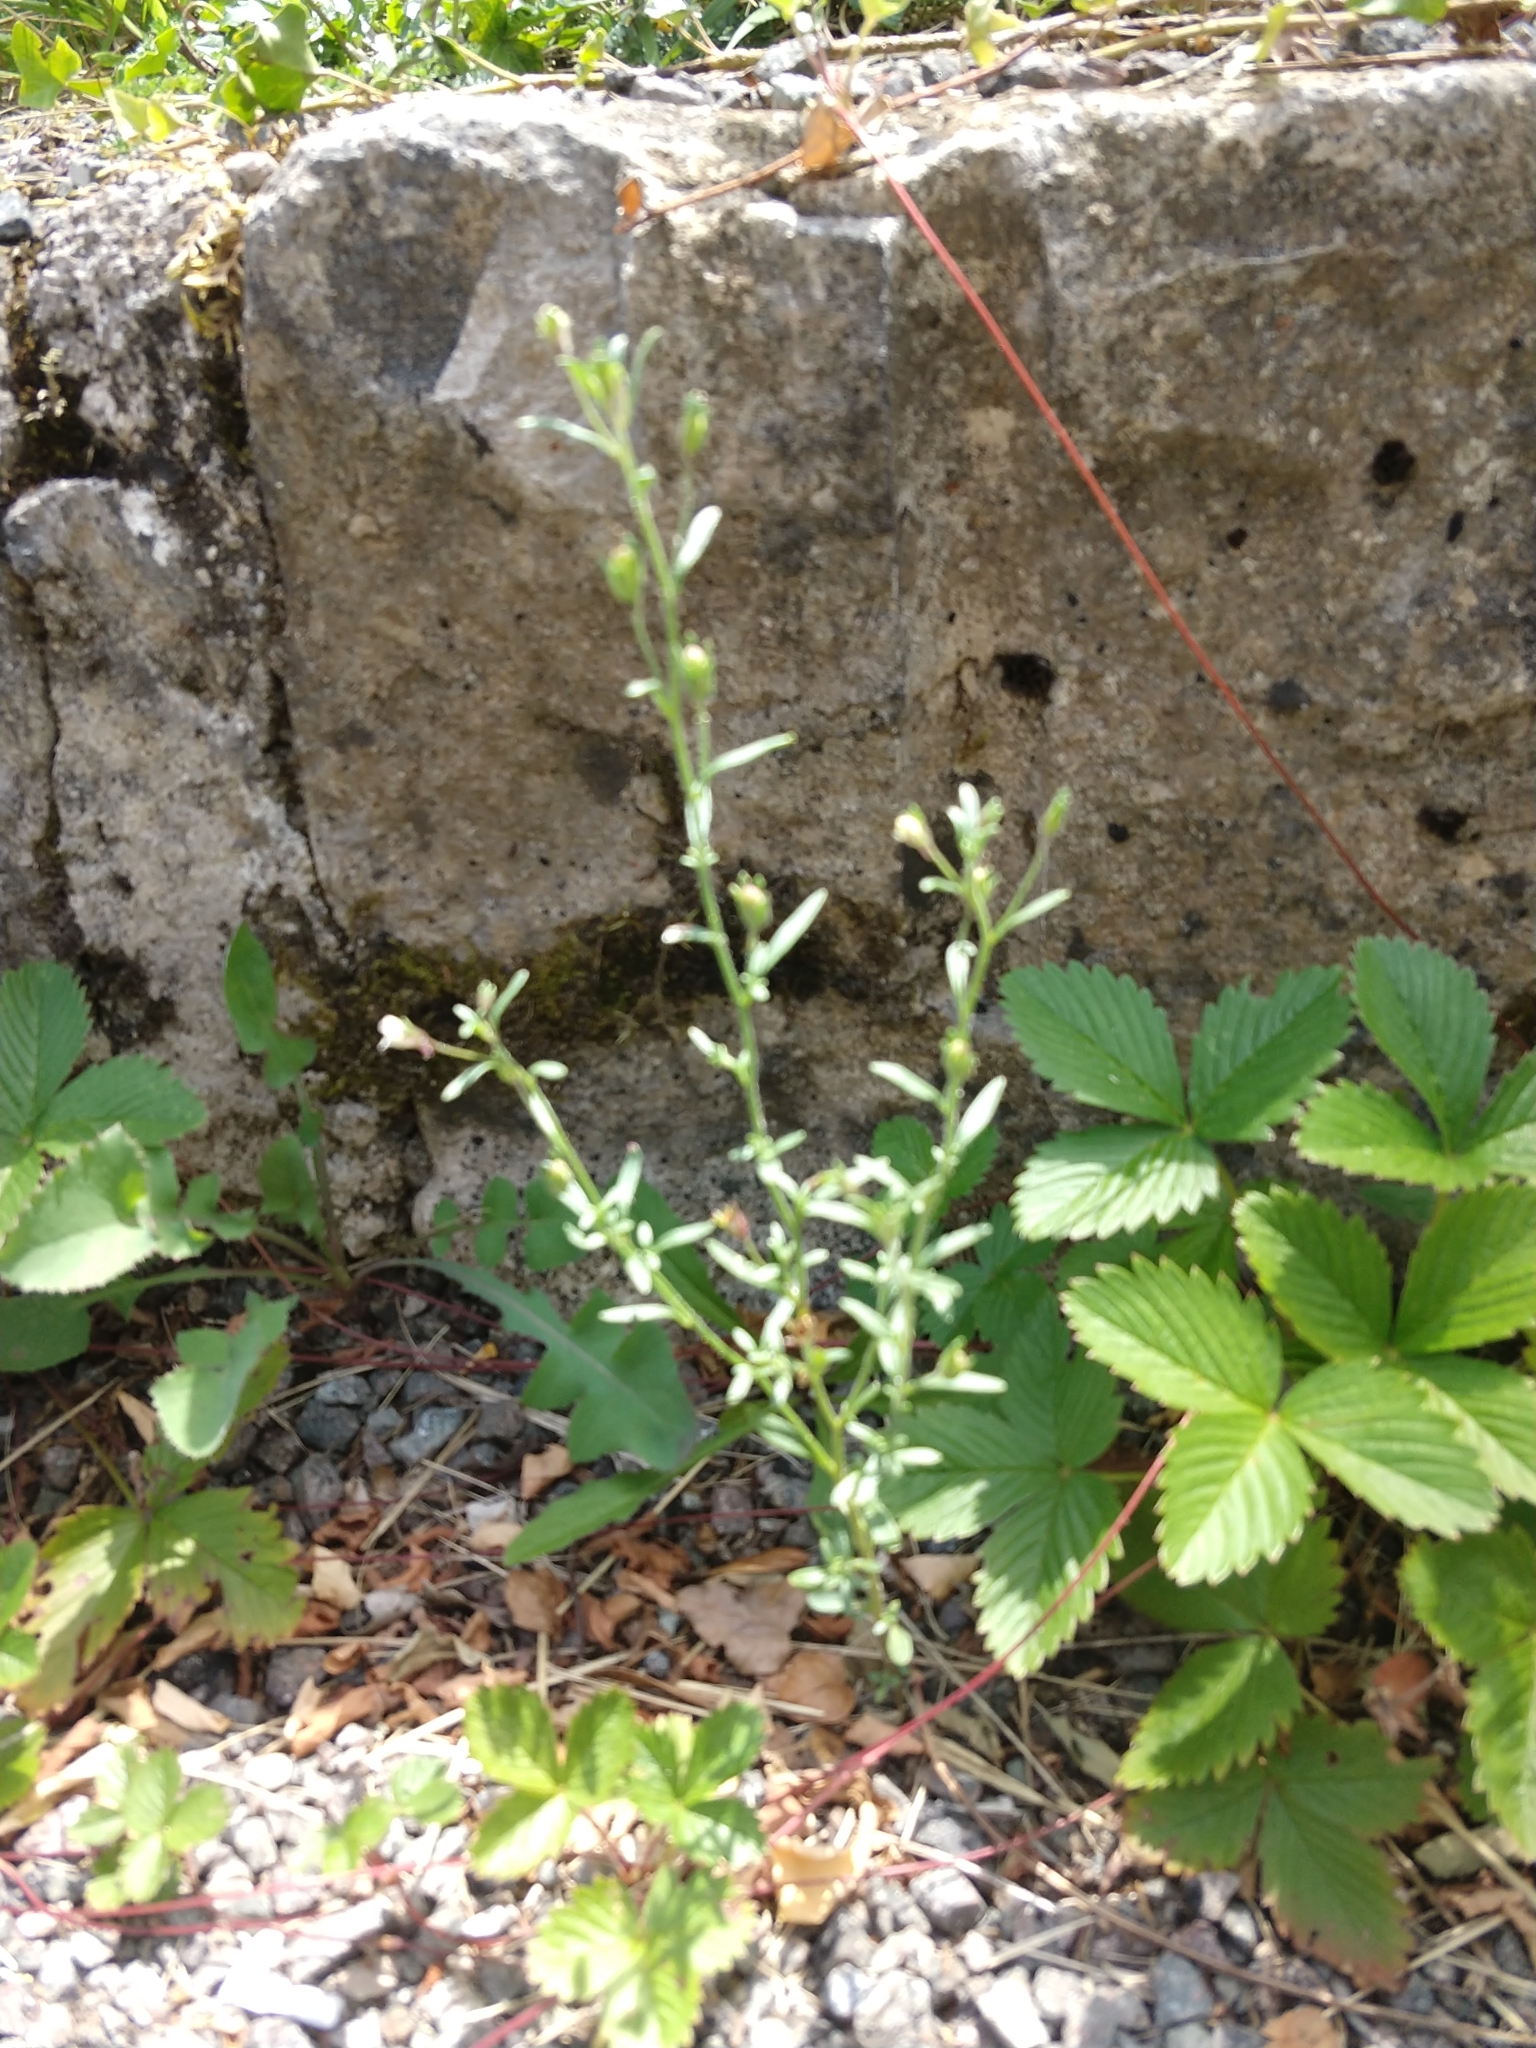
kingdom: Plantae
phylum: Tracheophyta
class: Magnoliopsida
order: Lamiales
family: Plantaginaceae
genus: Chaenorhinum
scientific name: Chaenorhinum minus
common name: Dwarf snapdragon
